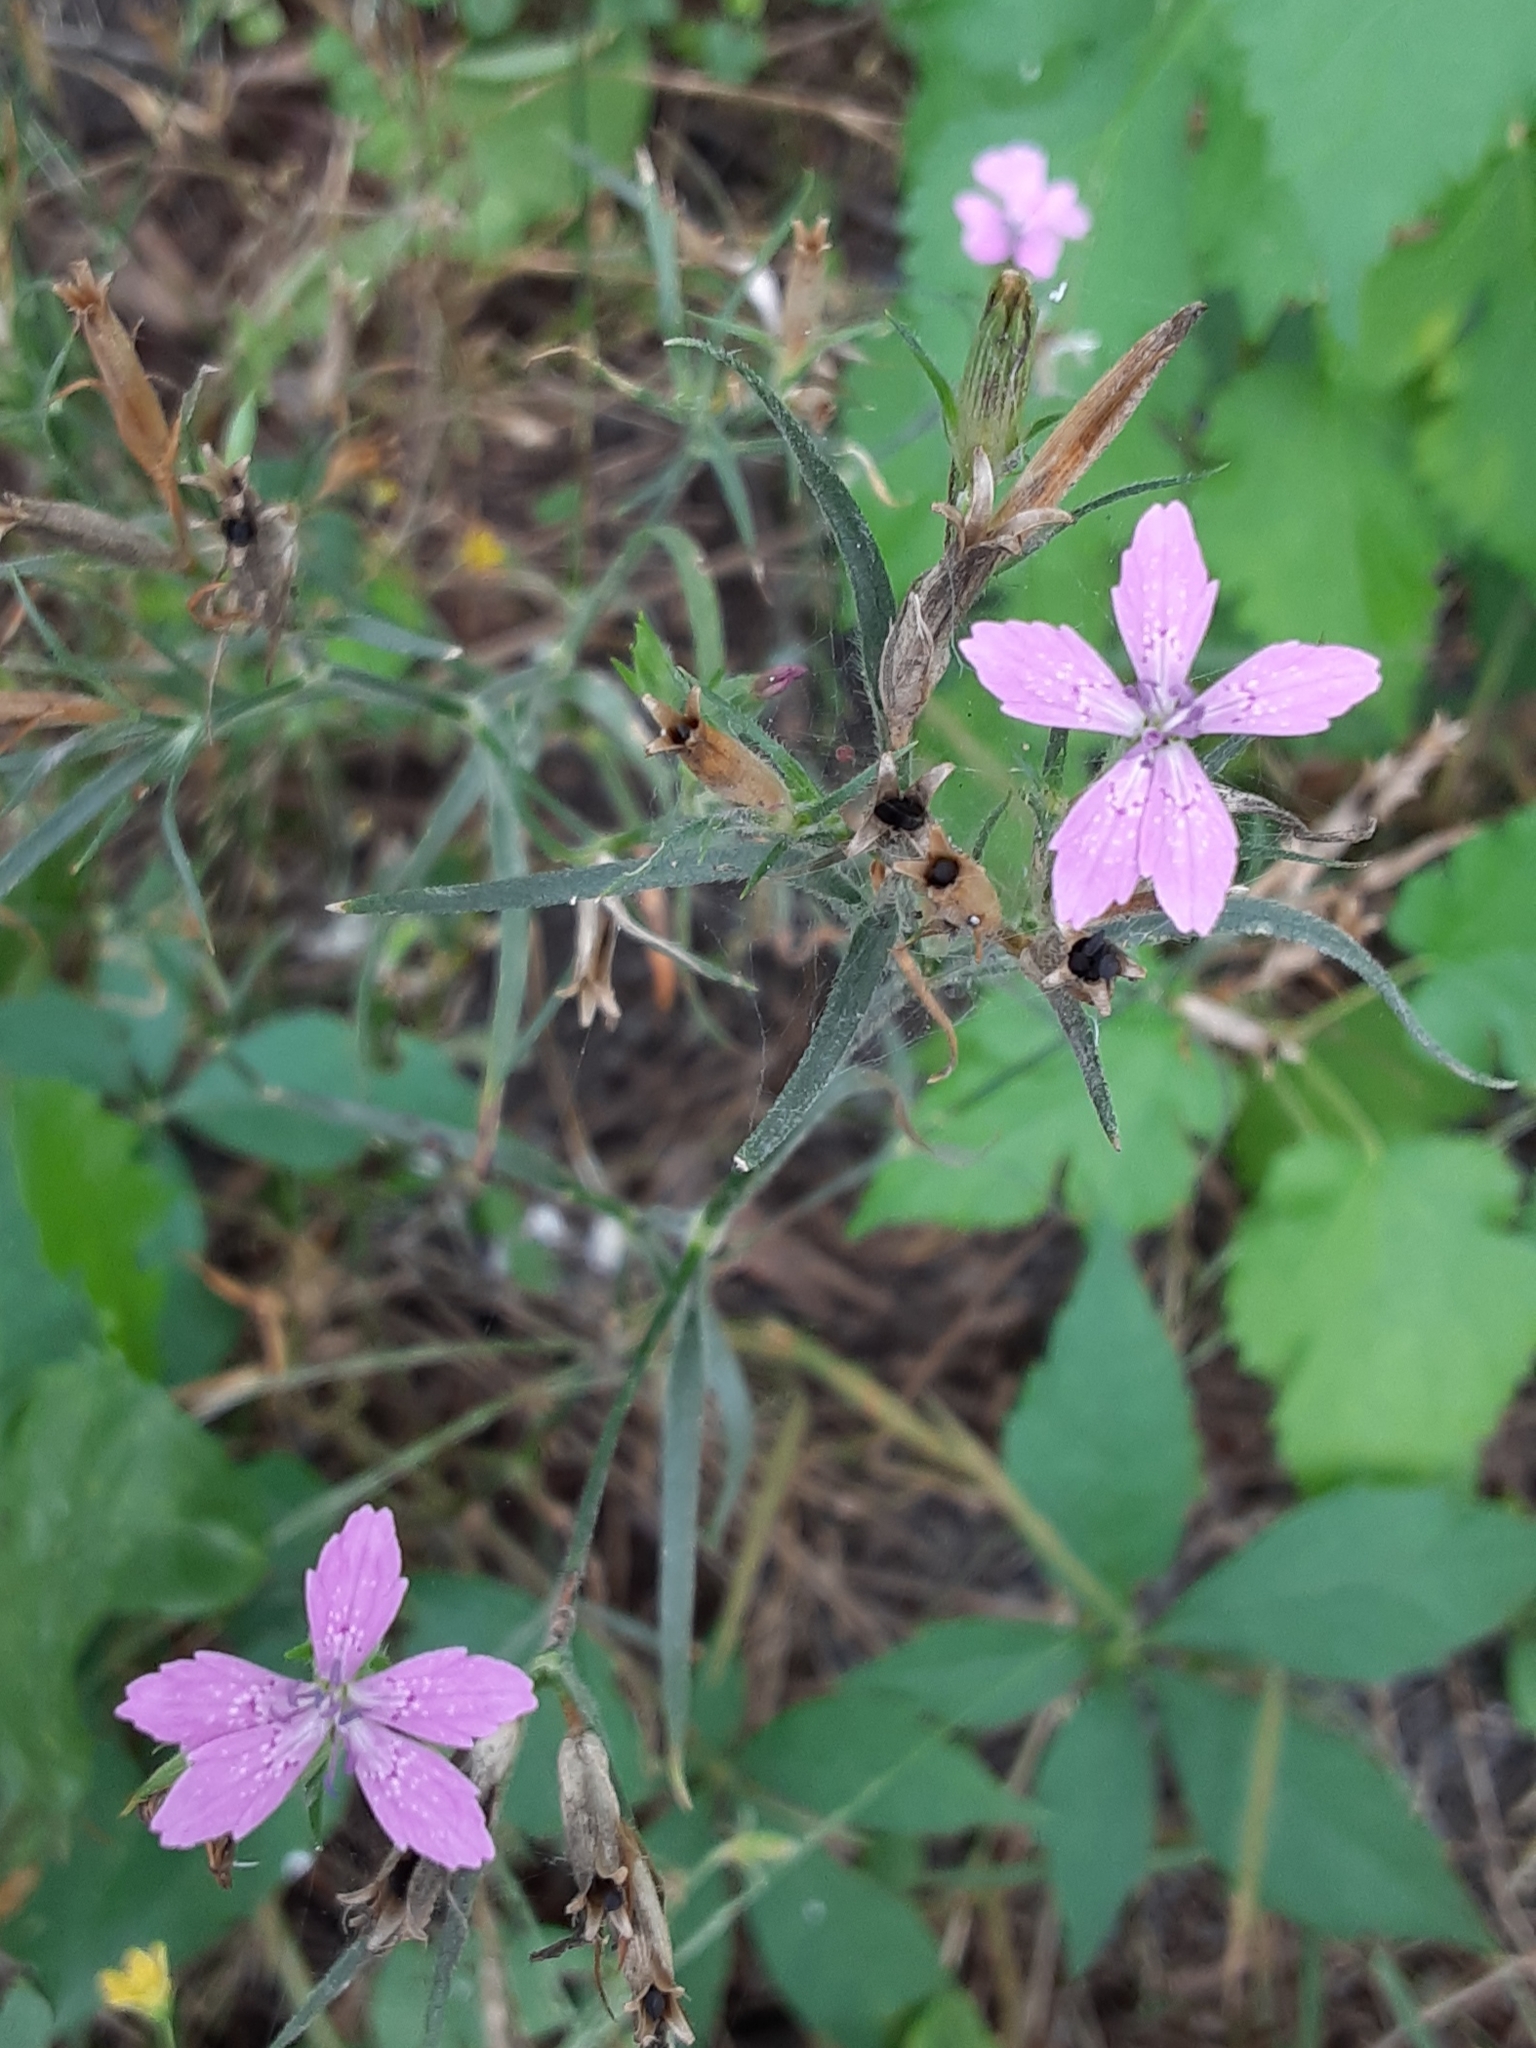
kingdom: Plantae
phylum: Tracheophyta
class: Magnoliopsida
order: Caryophyllales
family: Caryophyllaceae
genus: Dianthus
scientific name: Dianthus armeria
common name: Deptford pink
